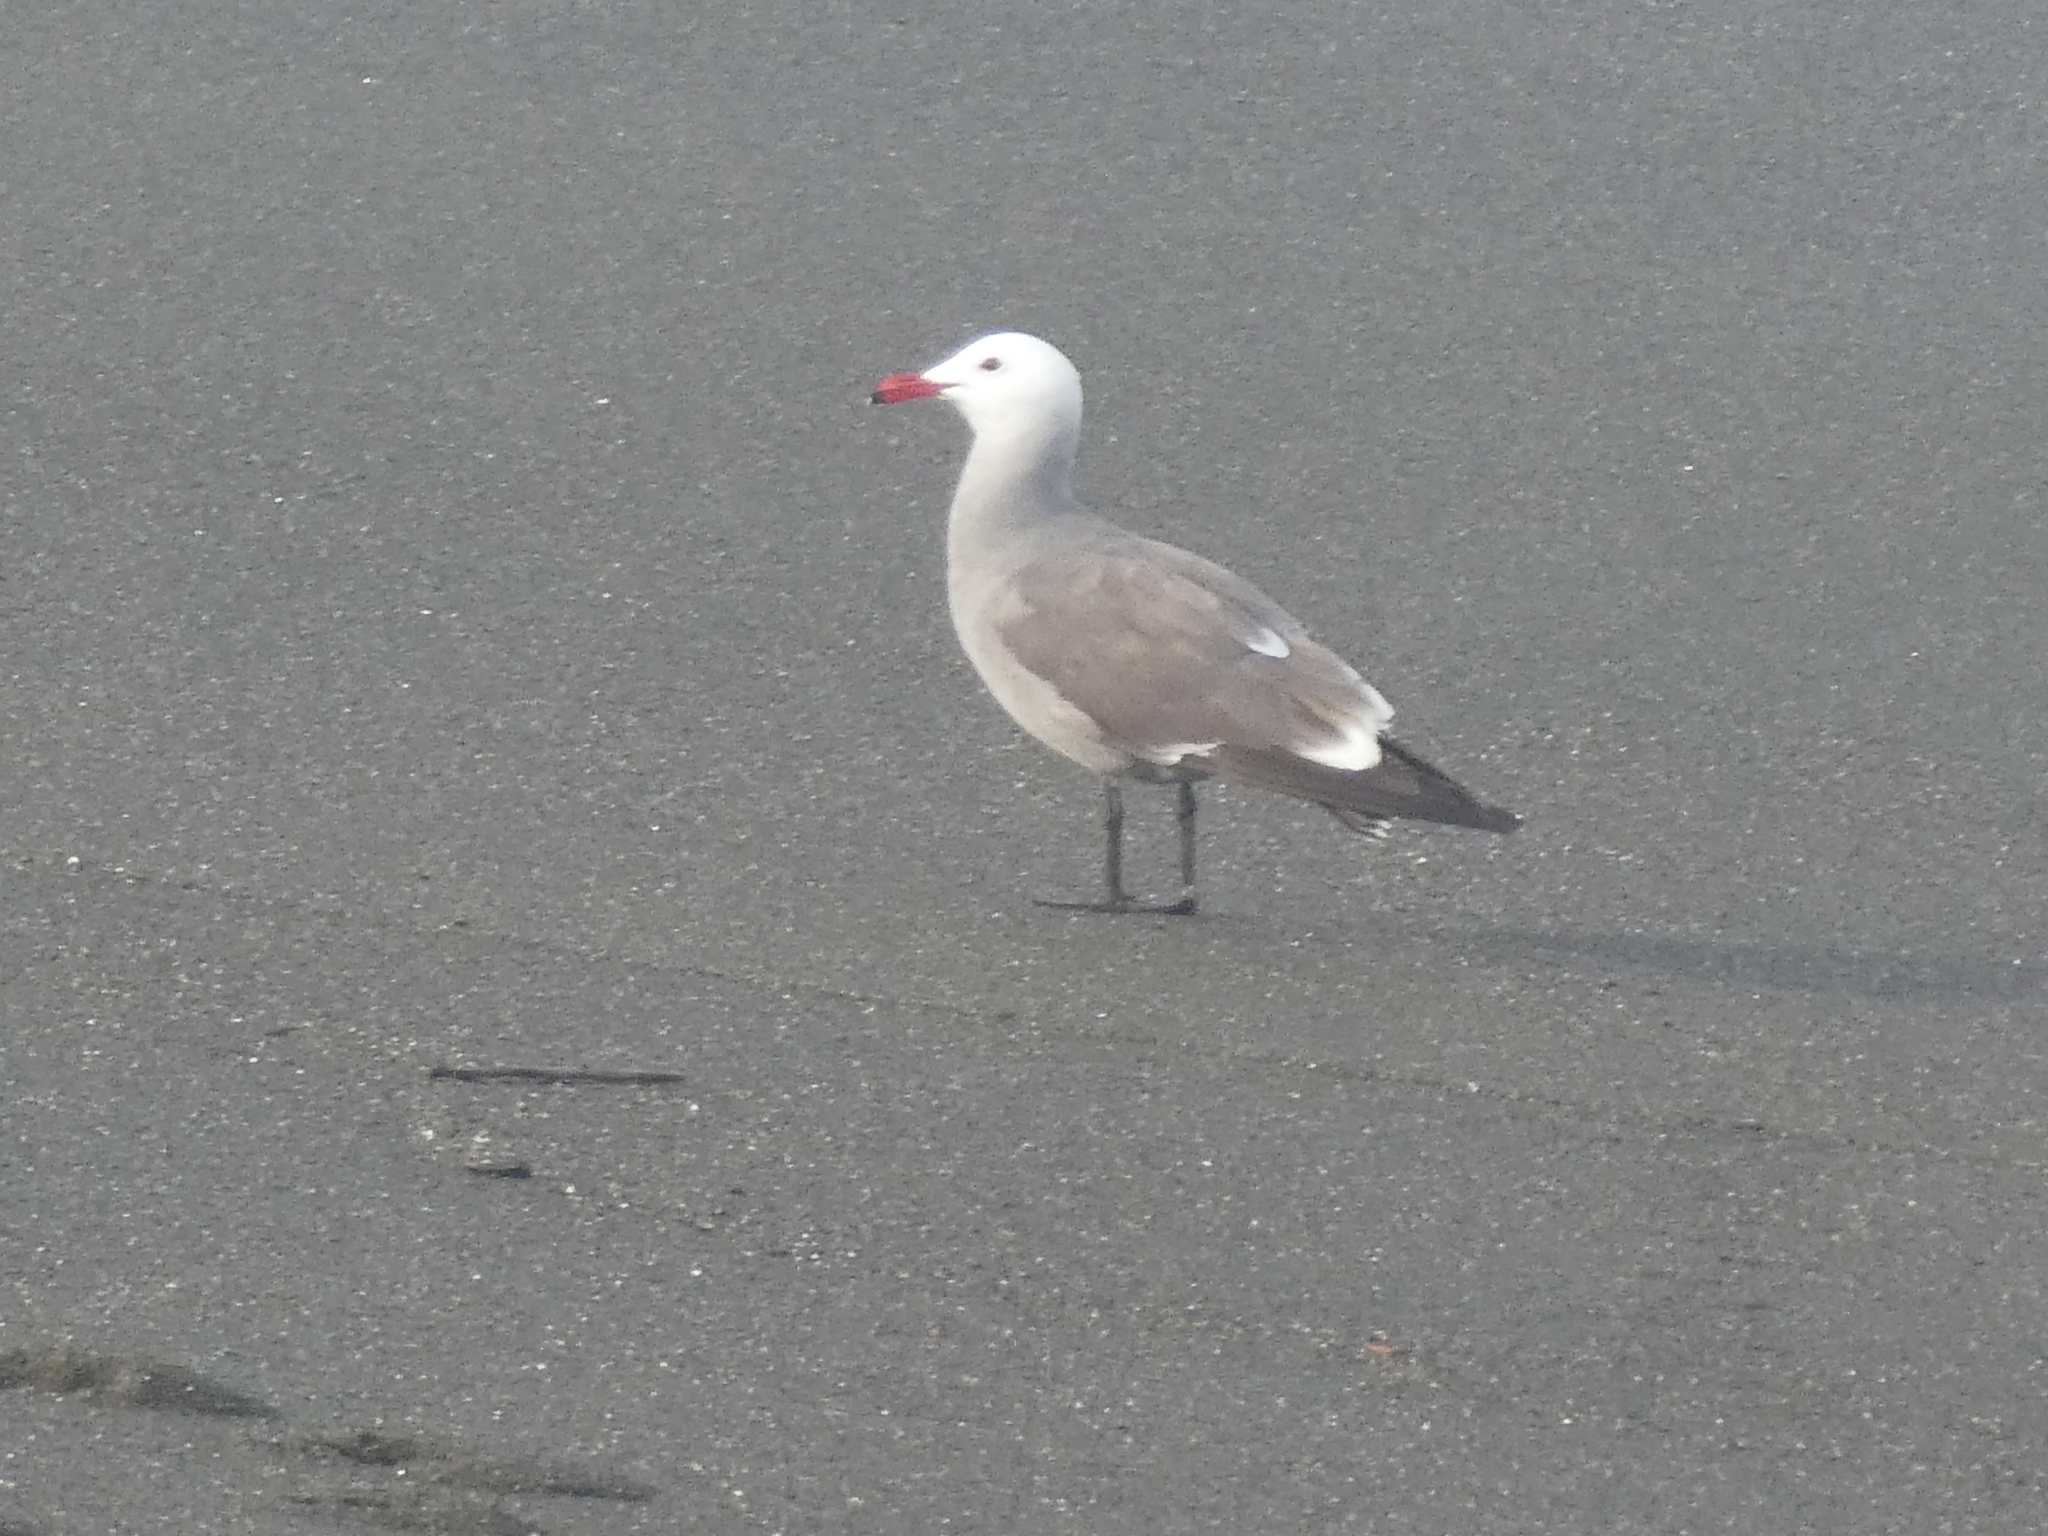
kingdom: Animalia
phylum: Chordata
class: Aves
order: Charadriiformes
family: Laridae
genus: Larus
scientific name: Larus heermanni
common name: Heermann's gull
